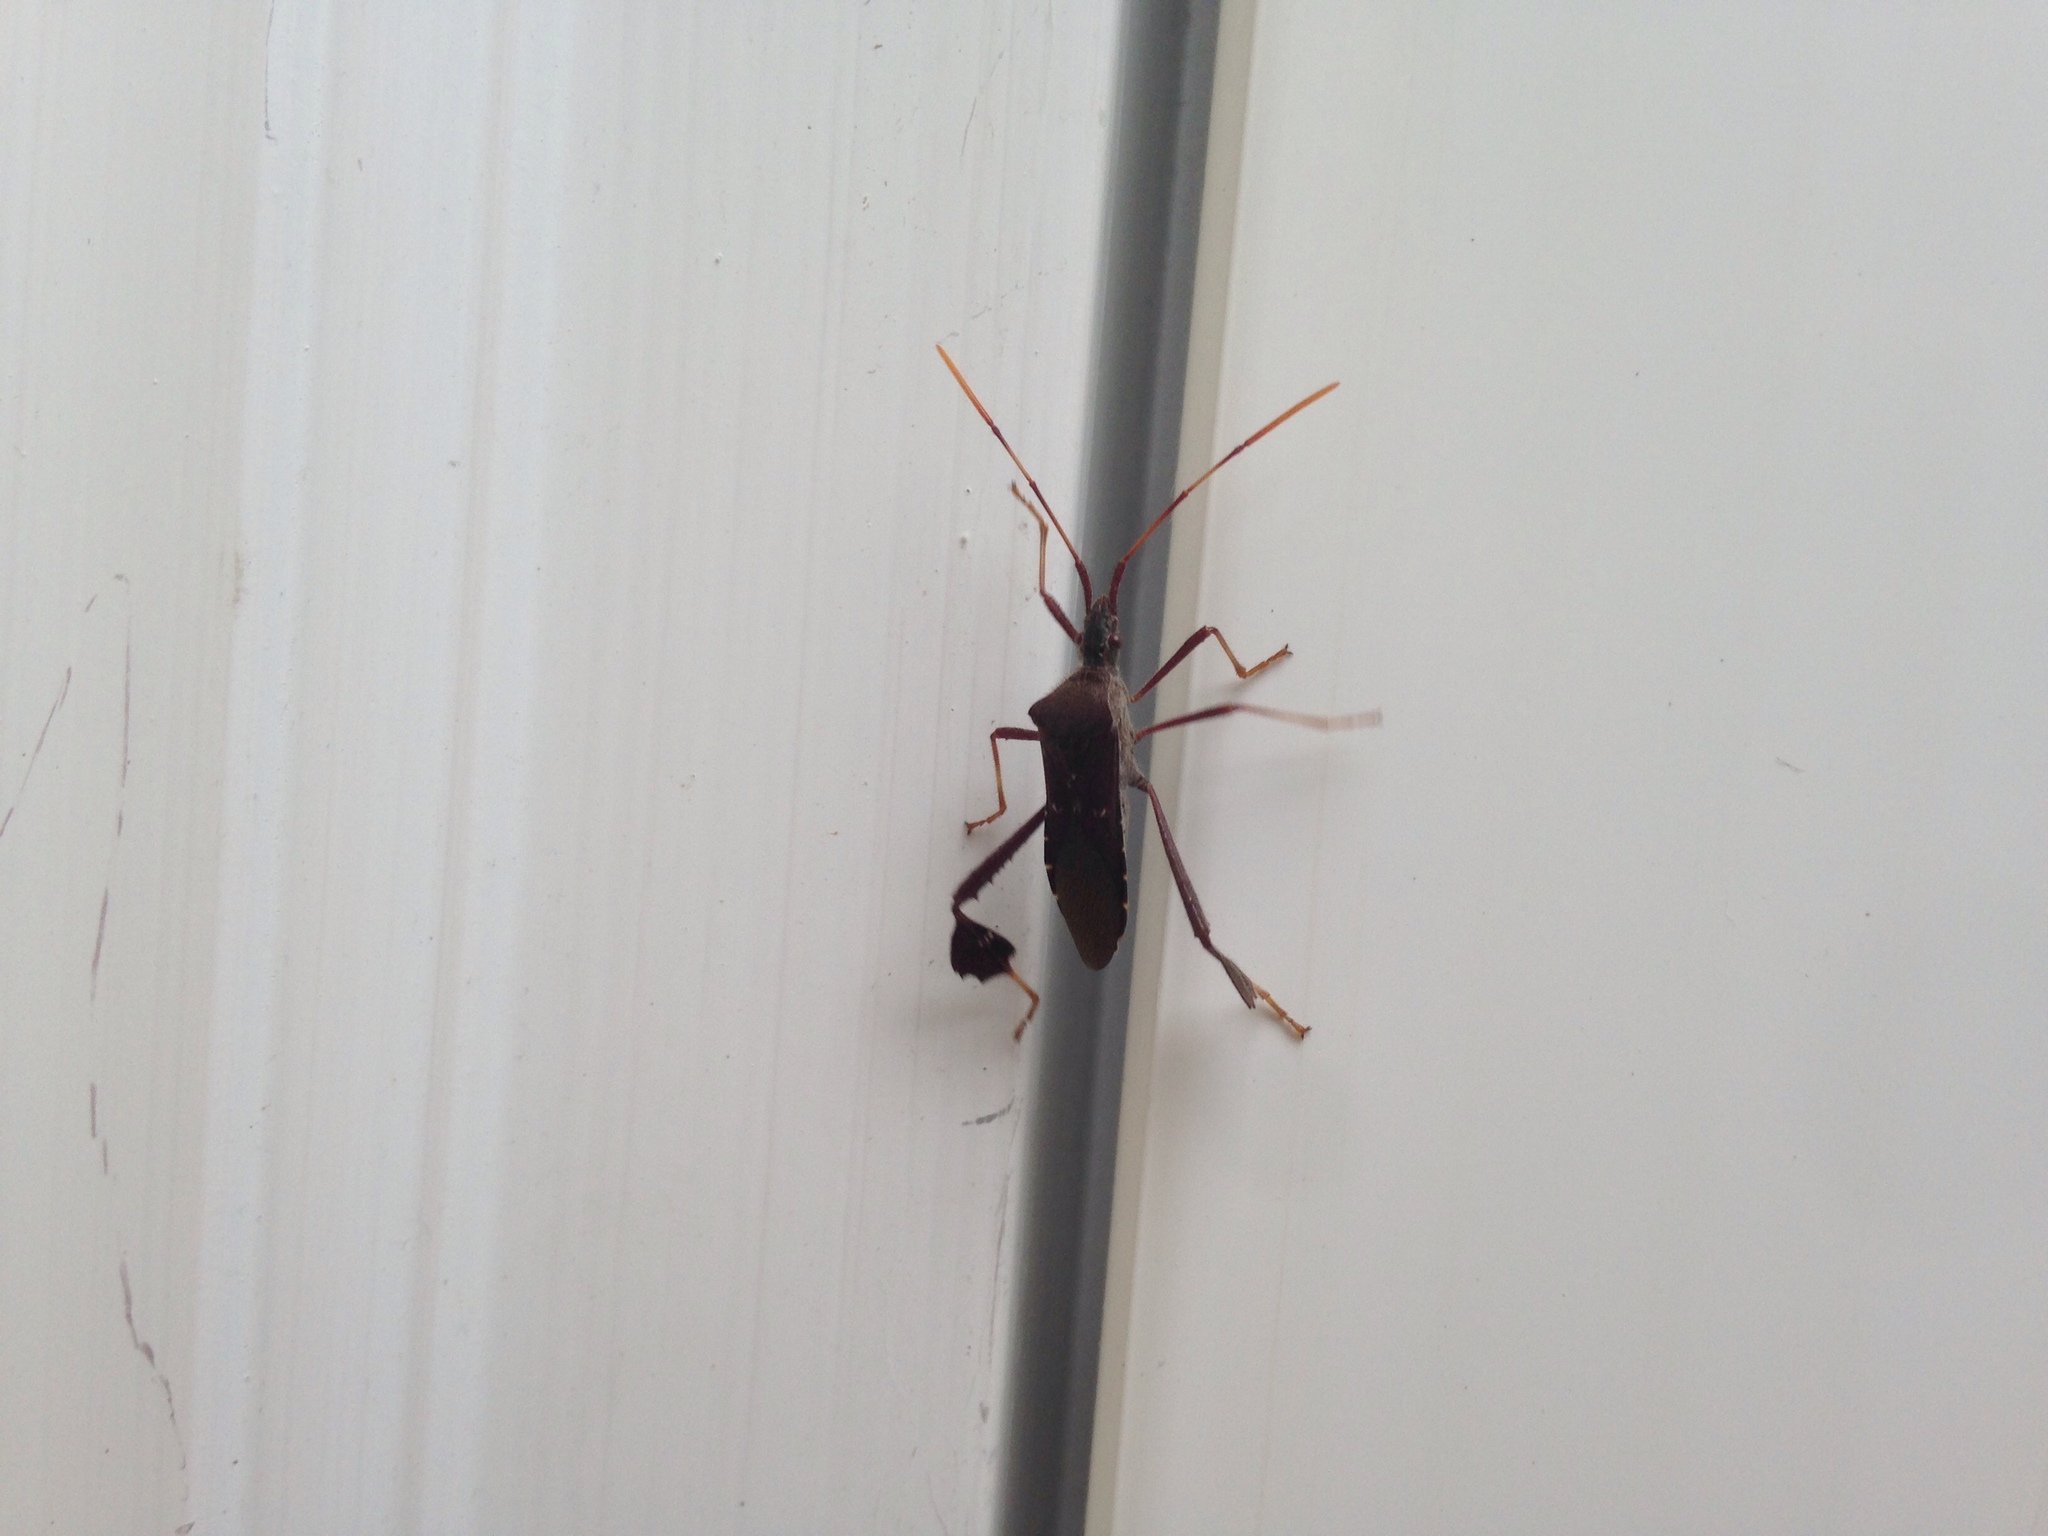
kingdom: Animalia
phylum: Arthropoda
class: Insecta
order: Hemiptera
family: Coreidae
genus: Leptoglossus
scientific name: Leptoglossus oppositus
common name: Northern leaf-footed bug
